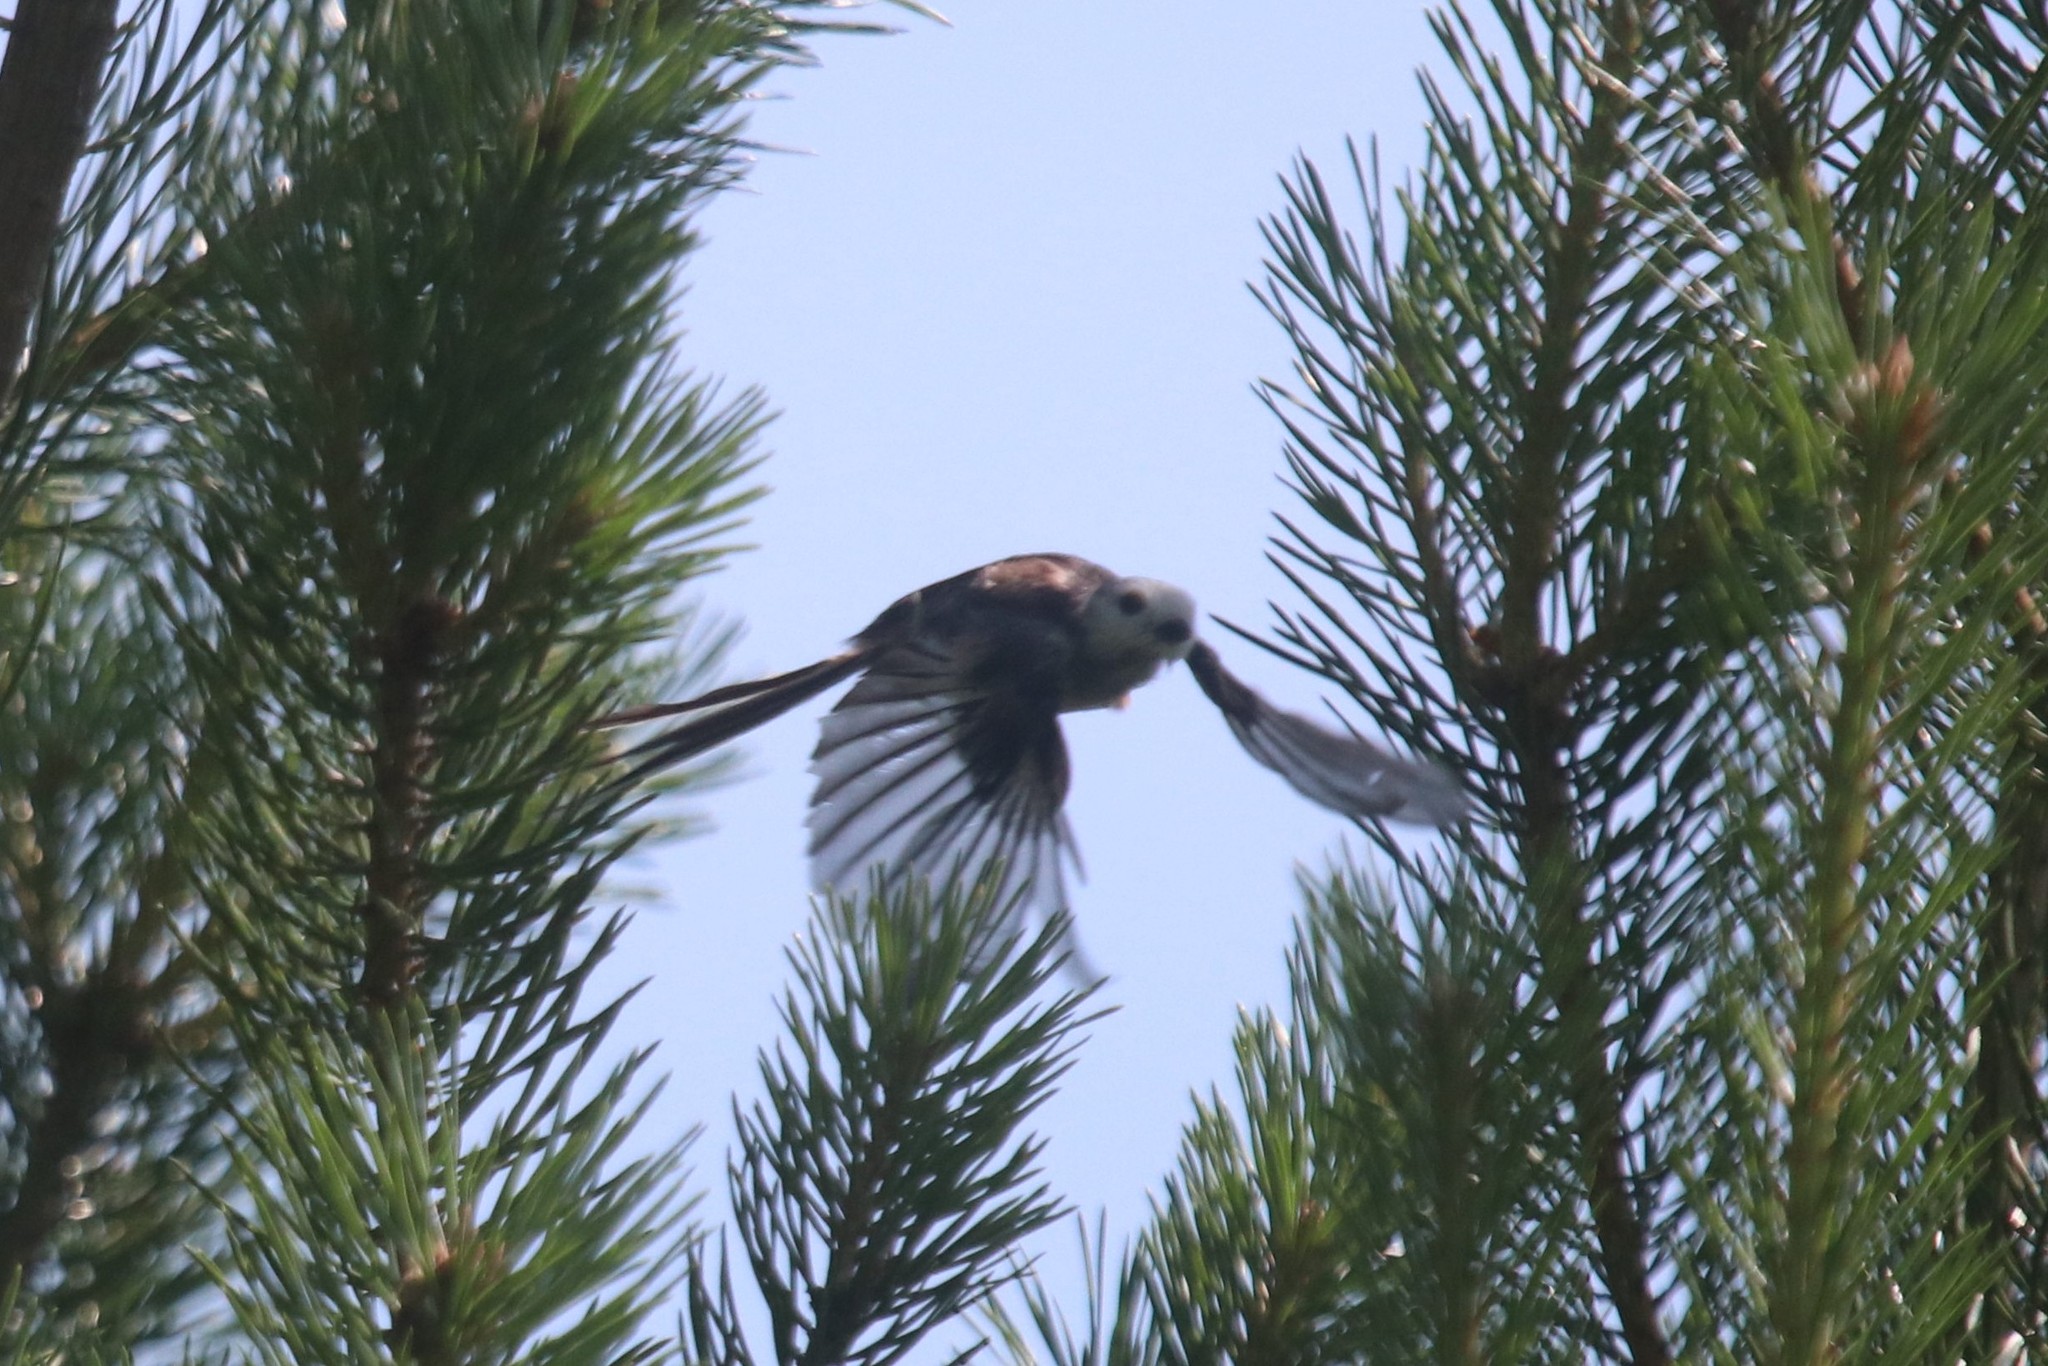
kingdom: Animalia
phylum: Chordata
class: Aves
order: Passeriformes
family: Aegithalidae
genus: Aegithalos
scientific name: Aegithalos caudatus
